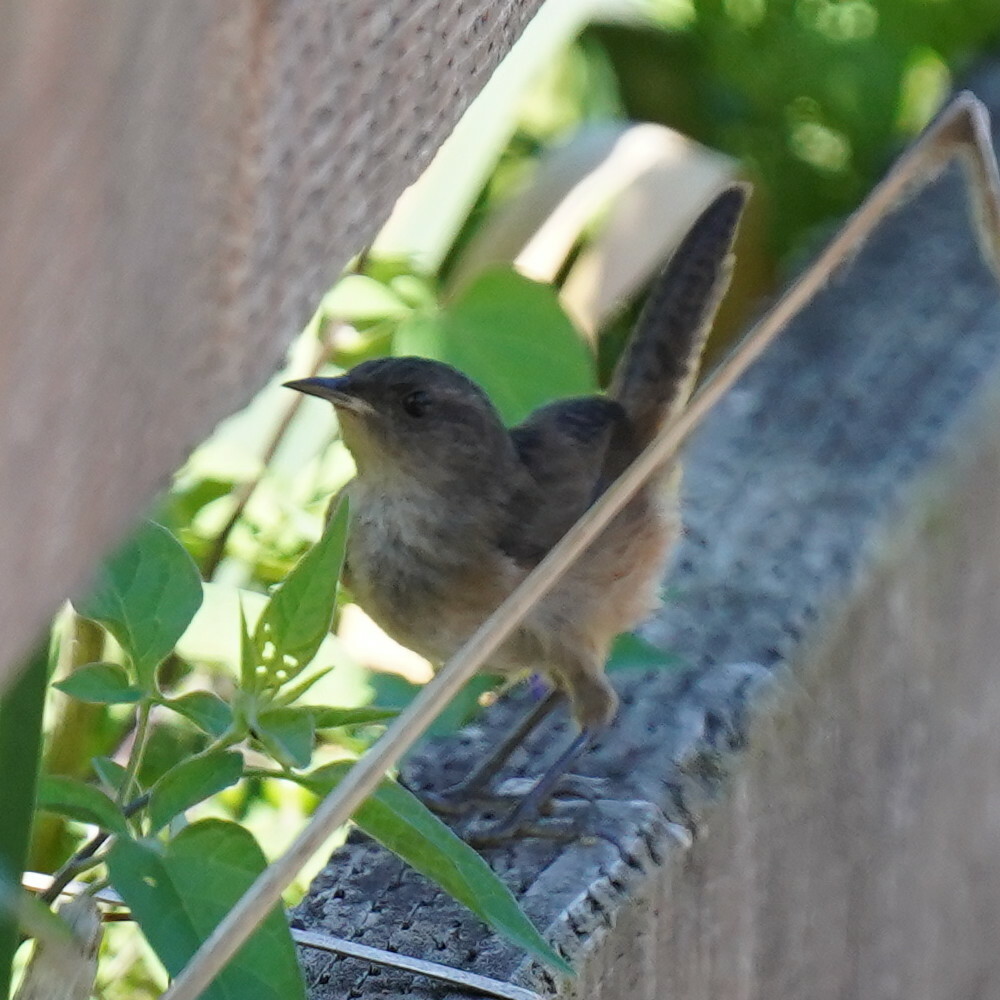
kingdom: Animalia
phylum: Chordata
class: Aves
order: Passeriformes
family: Troglodytidae
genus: Troglodytes
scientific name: Troglodytes aedon
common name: House wren
